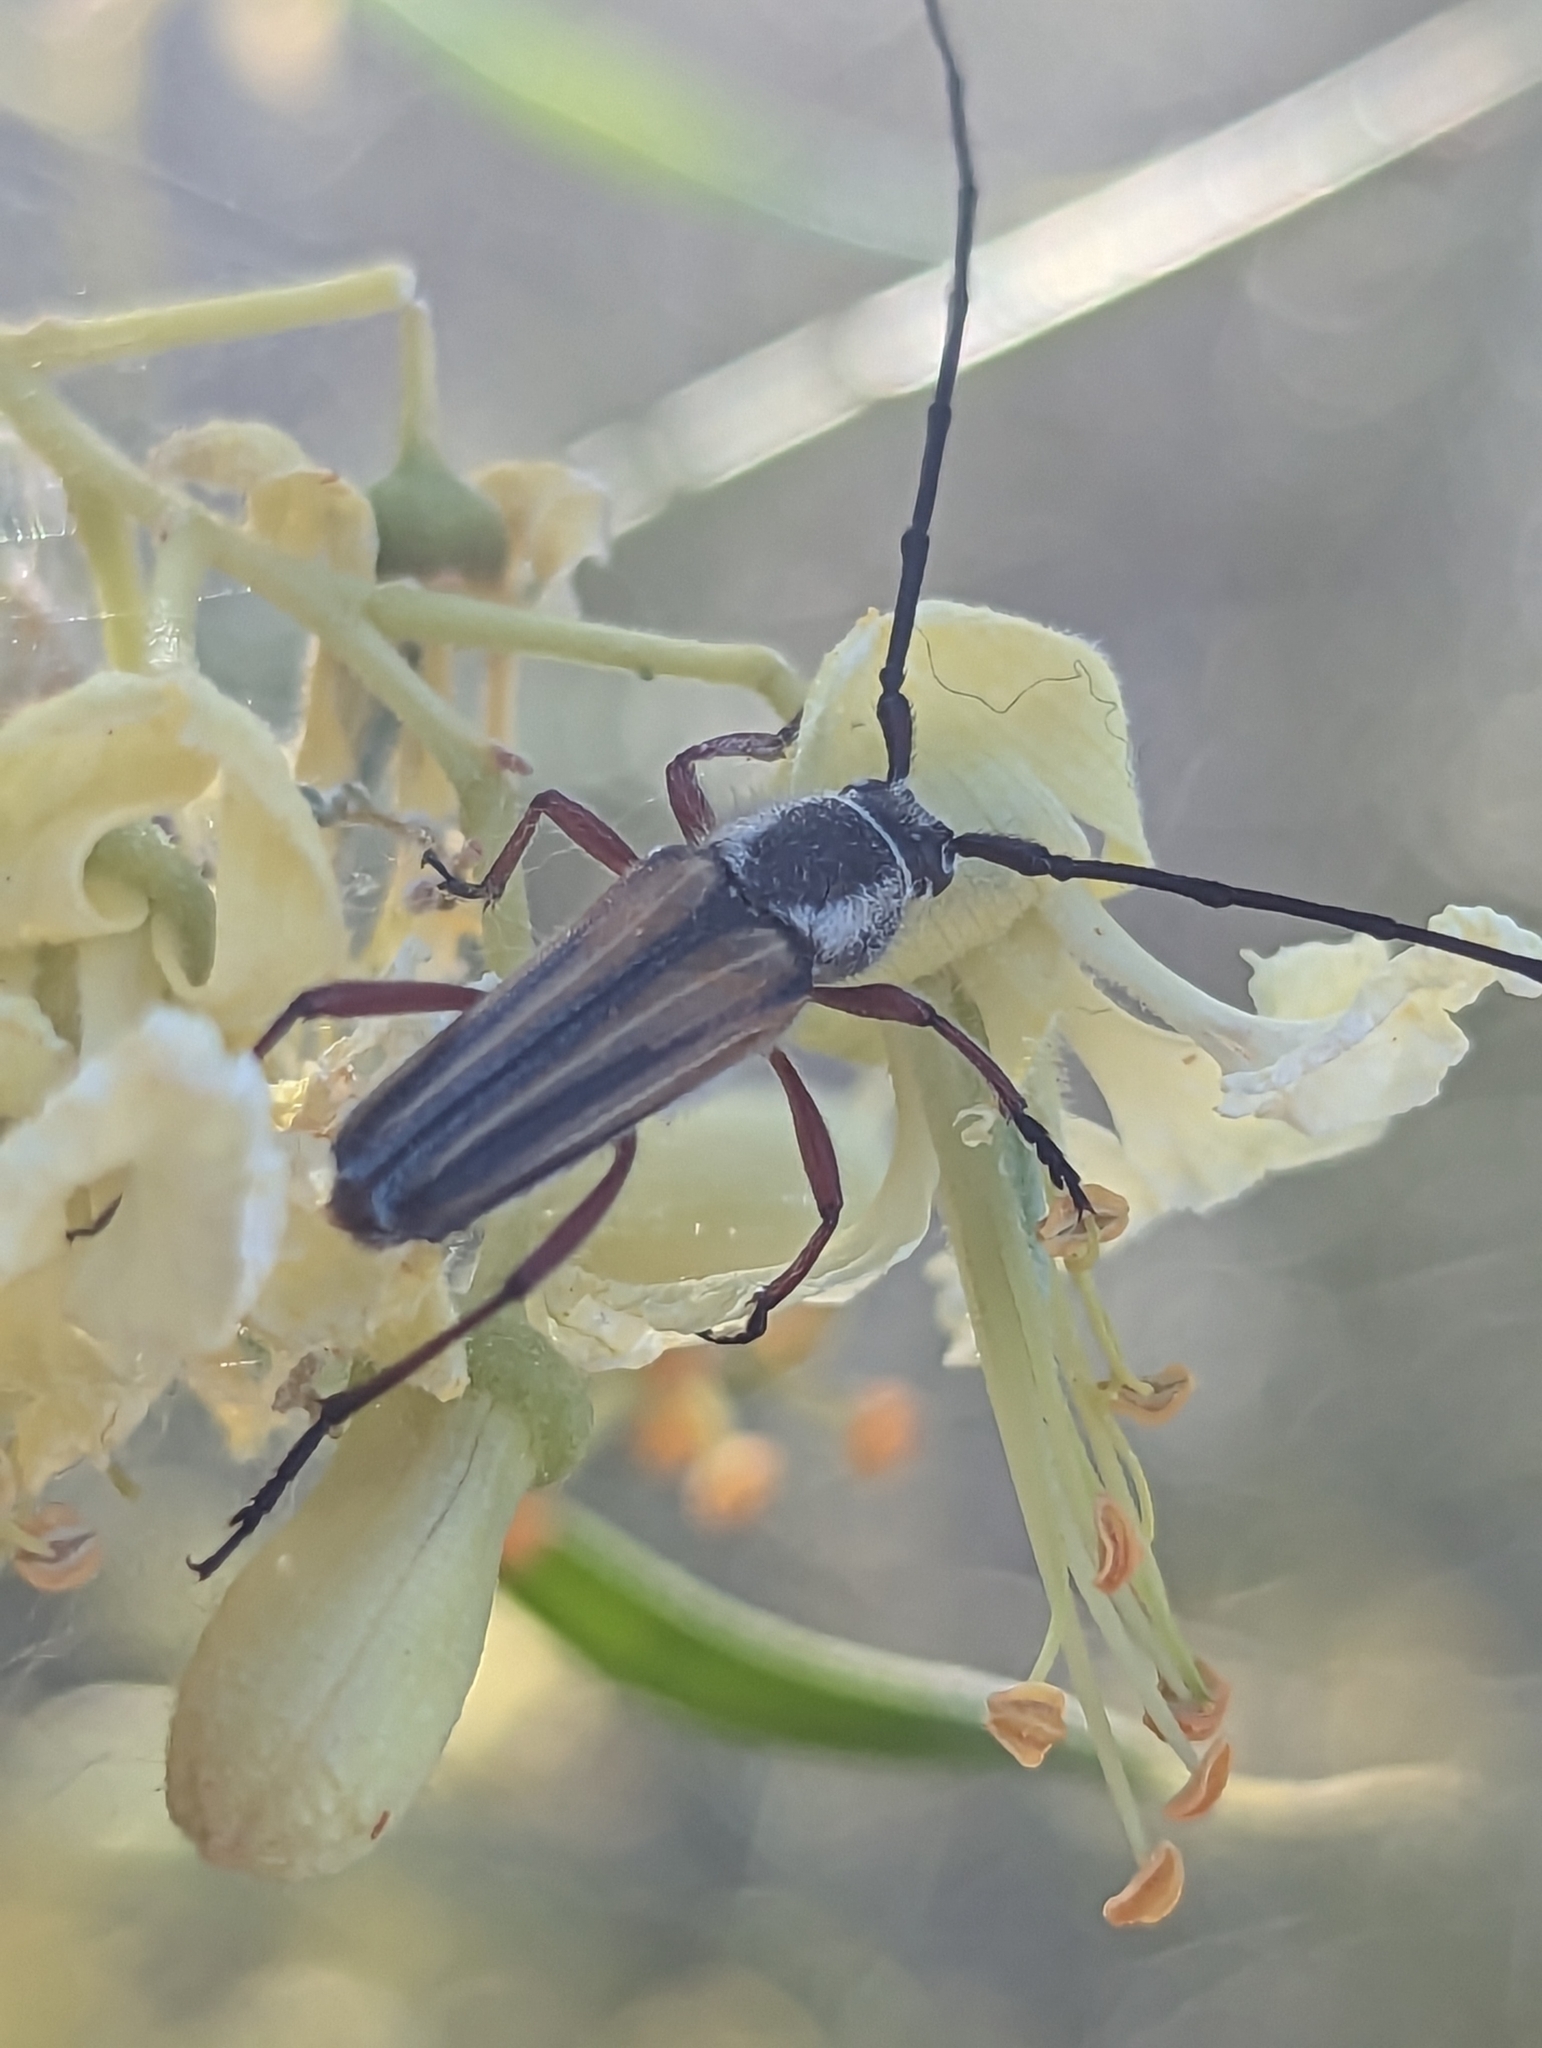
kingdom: Animalia
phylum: Arthropoda
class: Insecta
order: Coleoptera
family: Cerambycidae
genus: Sphaenothecus
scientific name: Sphaenothecus bilineatus
